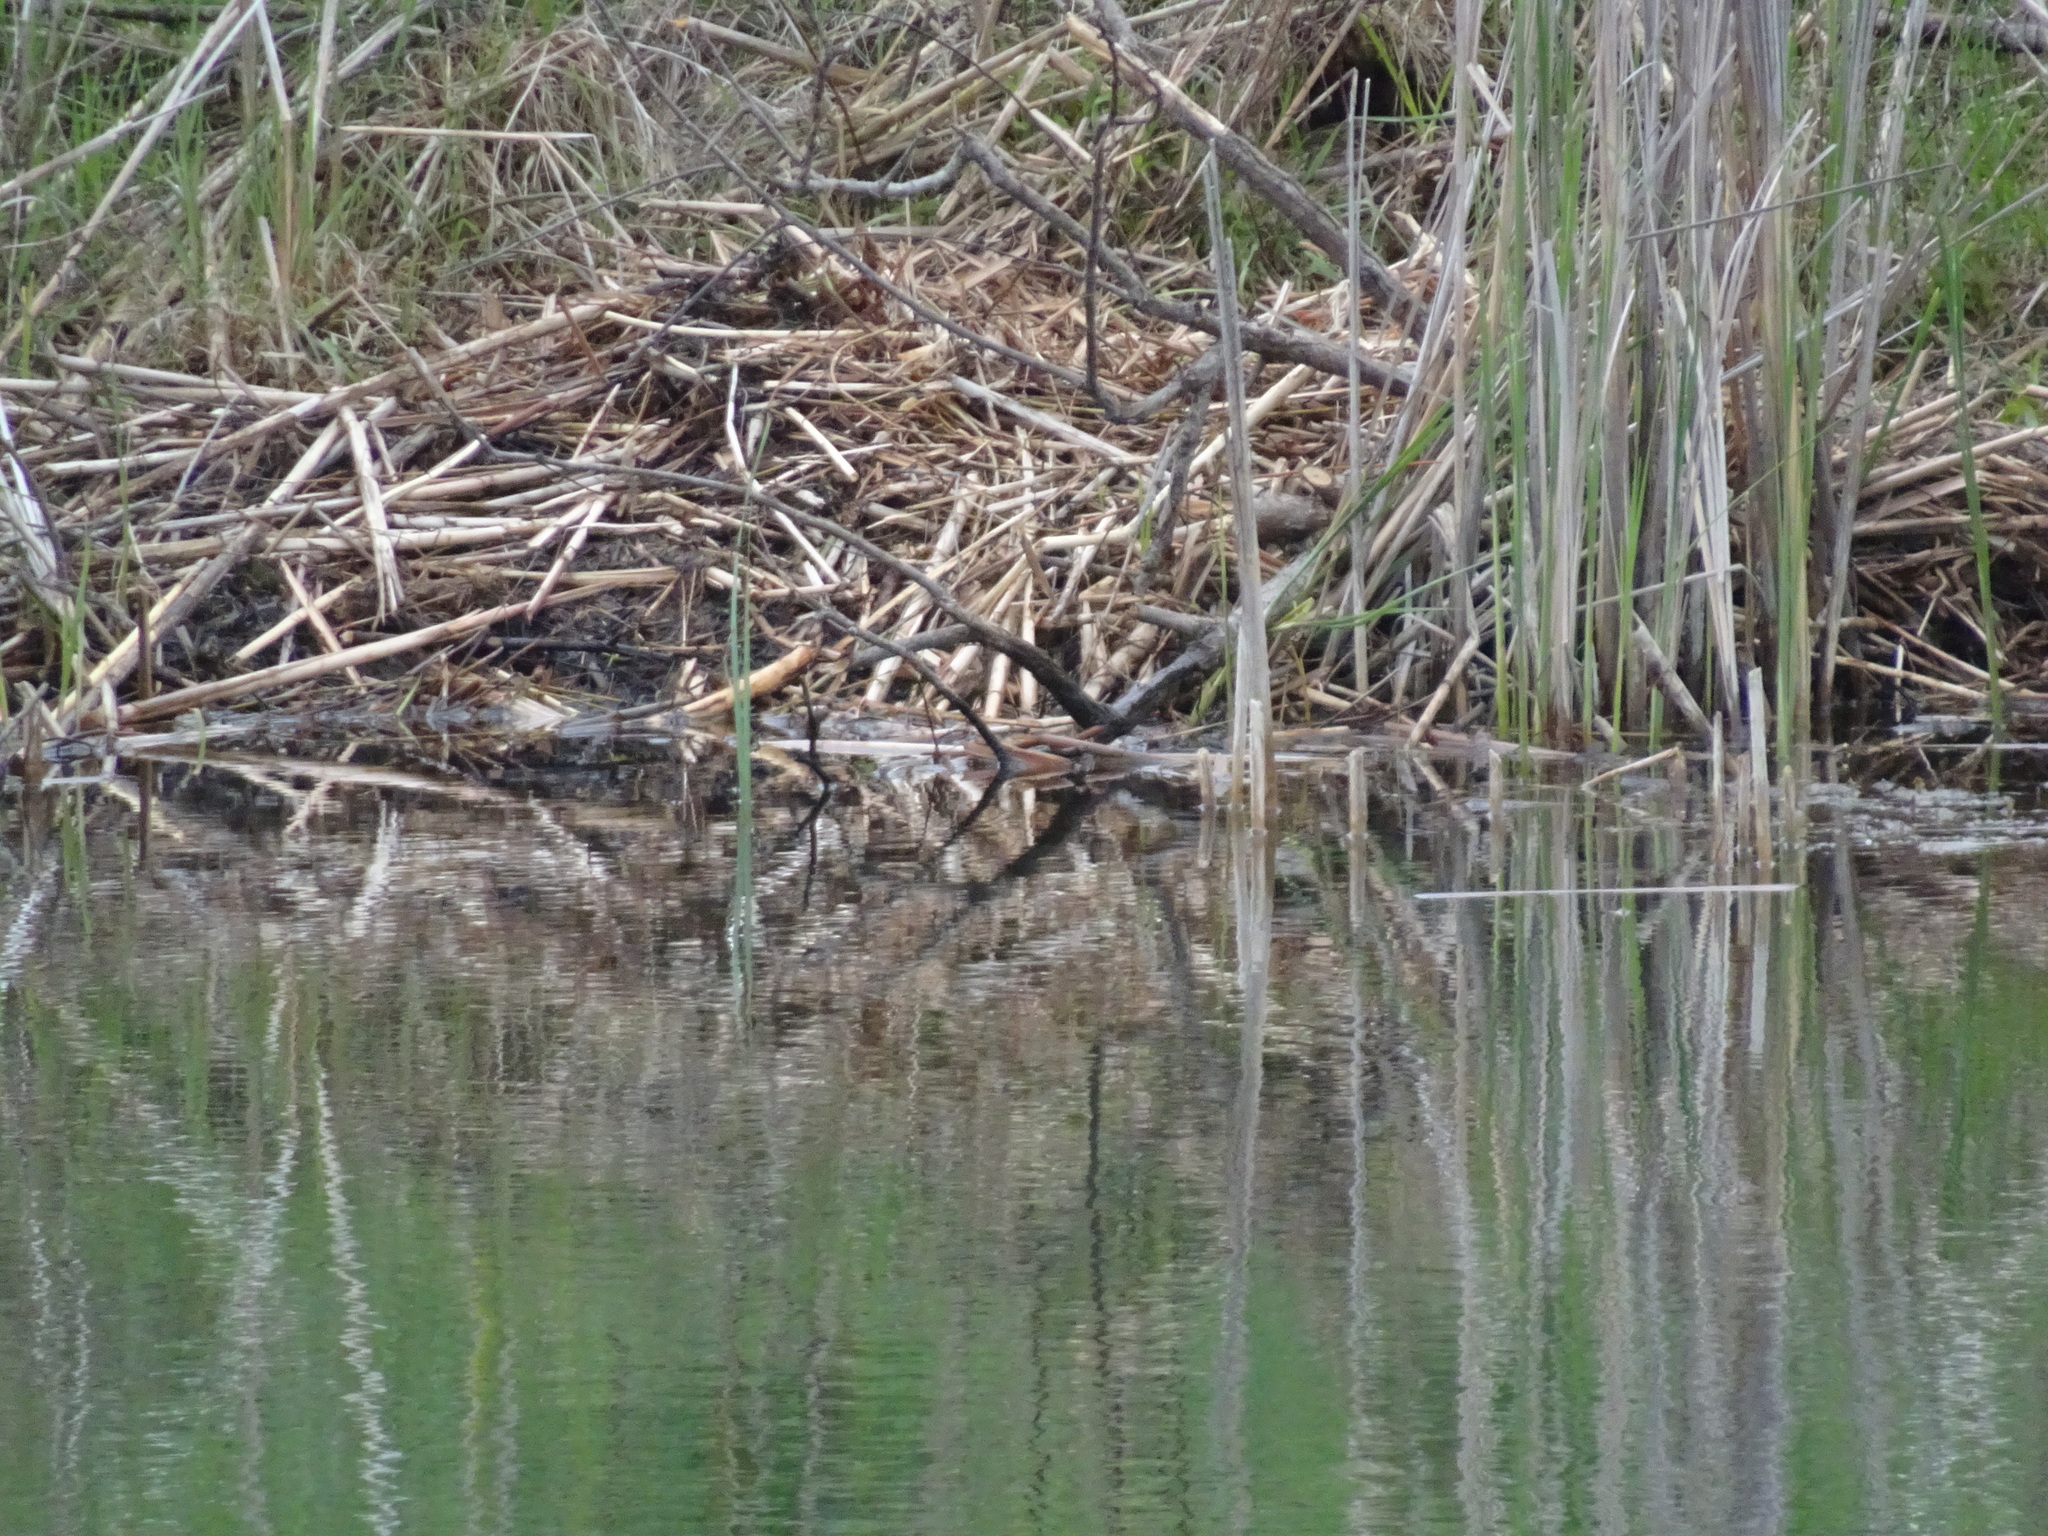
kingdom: Animalia
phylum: Chordata
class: Mammalia
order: Rodentia
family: Castoridae
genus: Castor
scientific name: Castor canadensis
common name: American beaver
